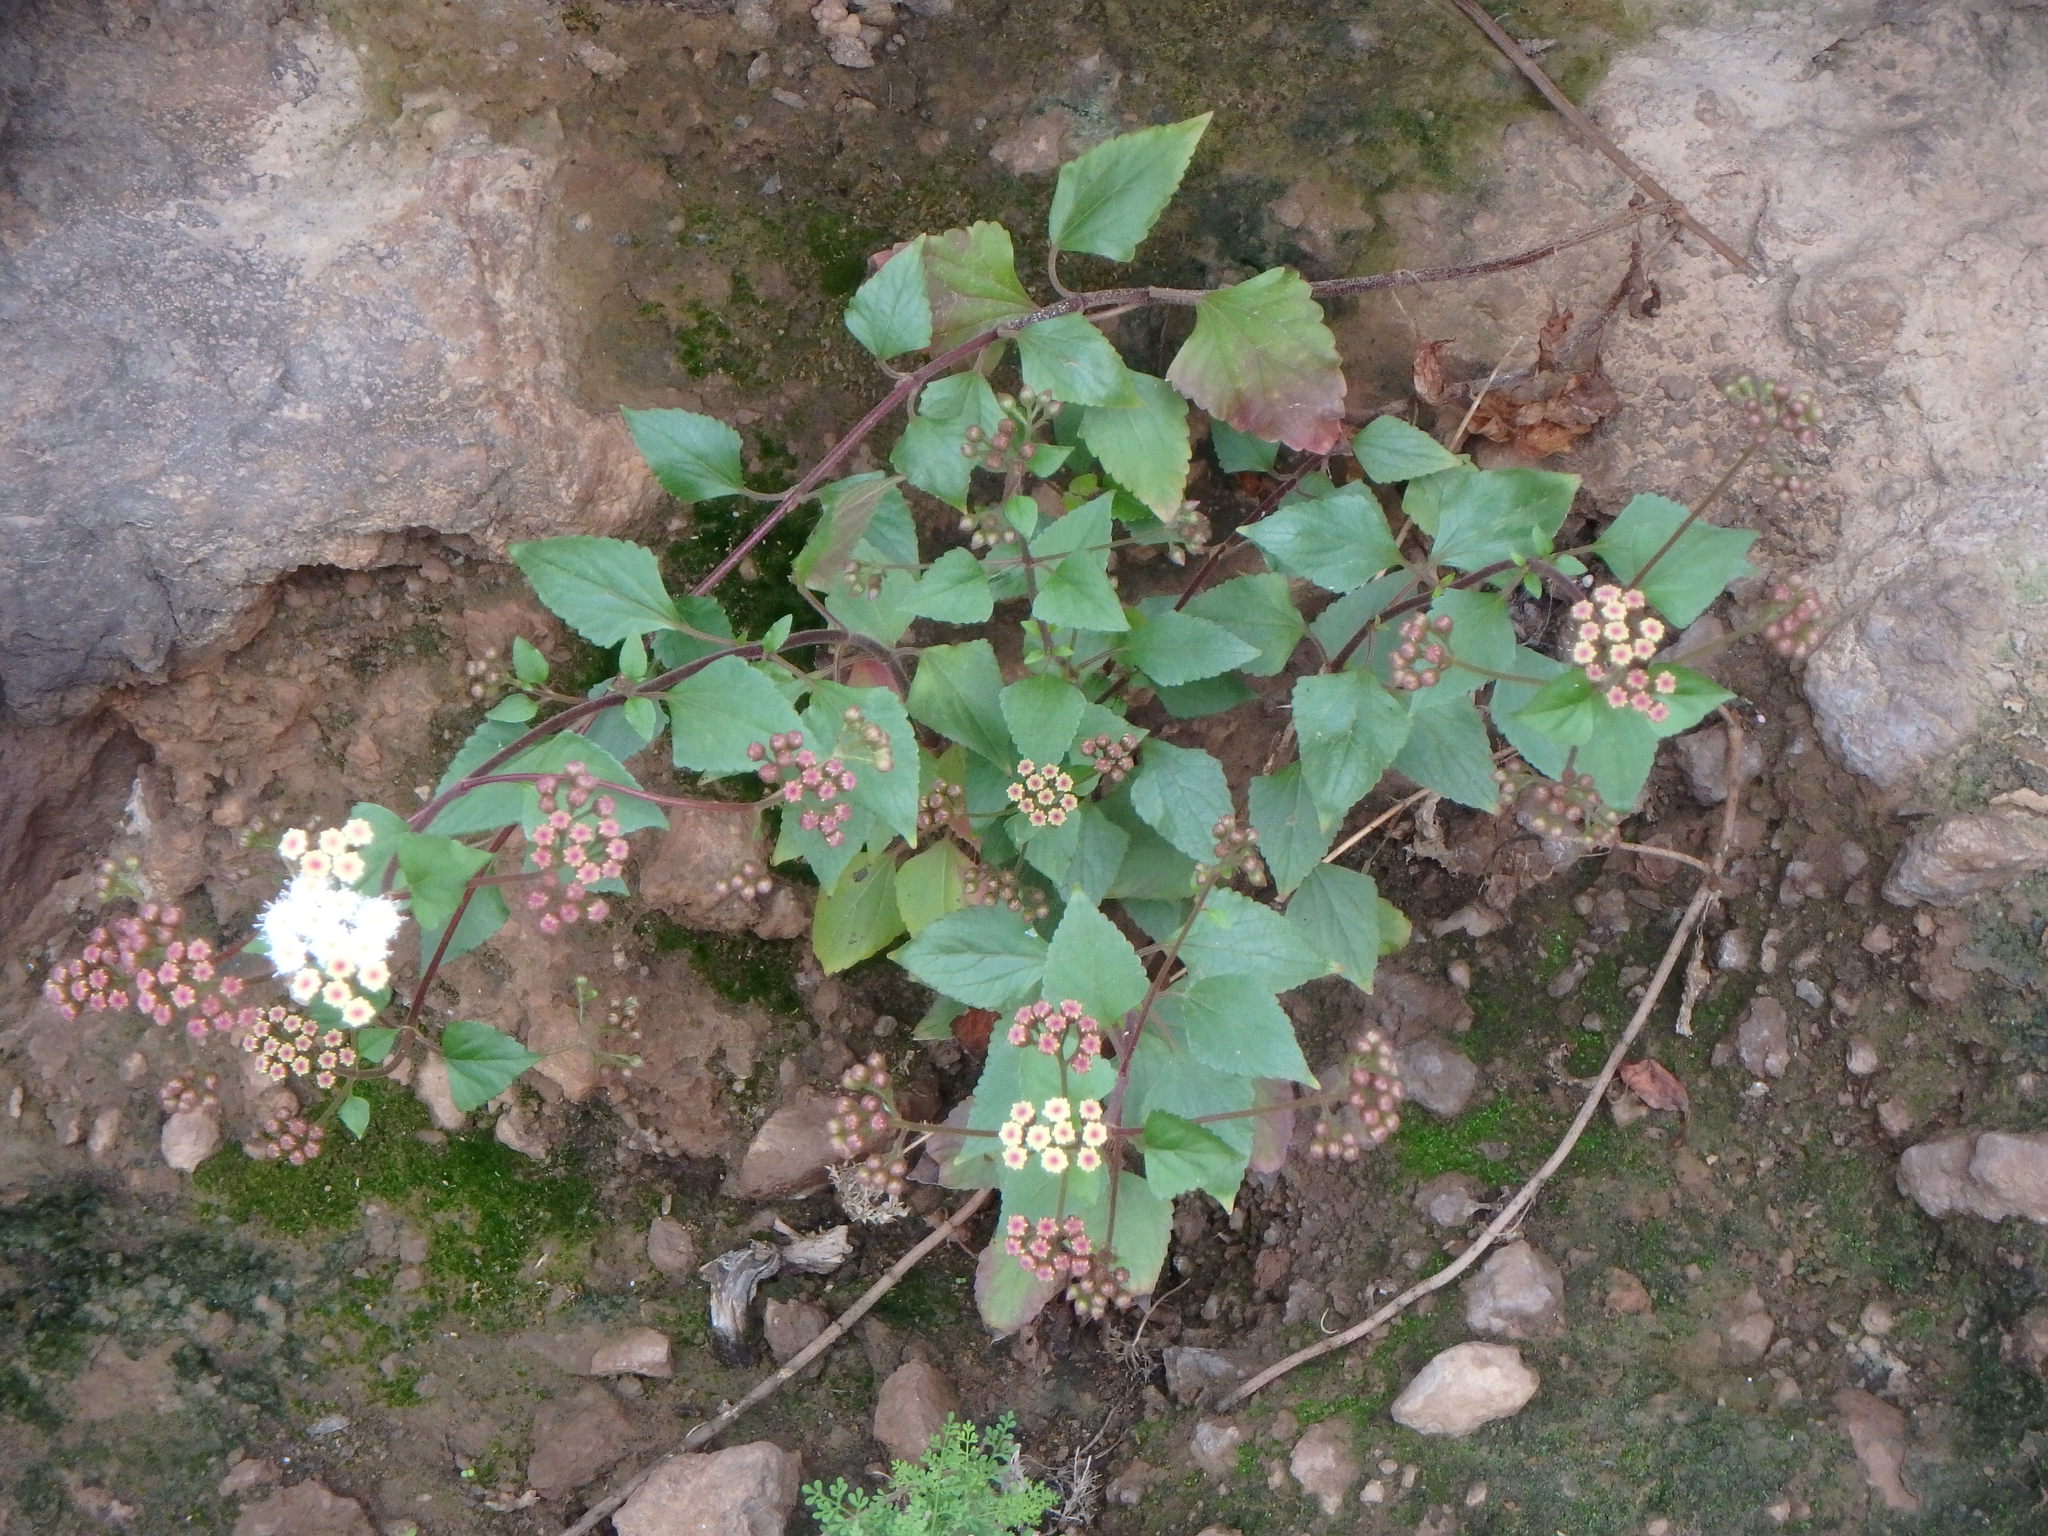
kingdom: Plantae
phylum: Tracheophyta
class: Magnoliopsida
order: Asterales
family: Asteraceae
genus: Ageratina
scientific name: Ageratina adenophora
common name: Sticky snakeroot
